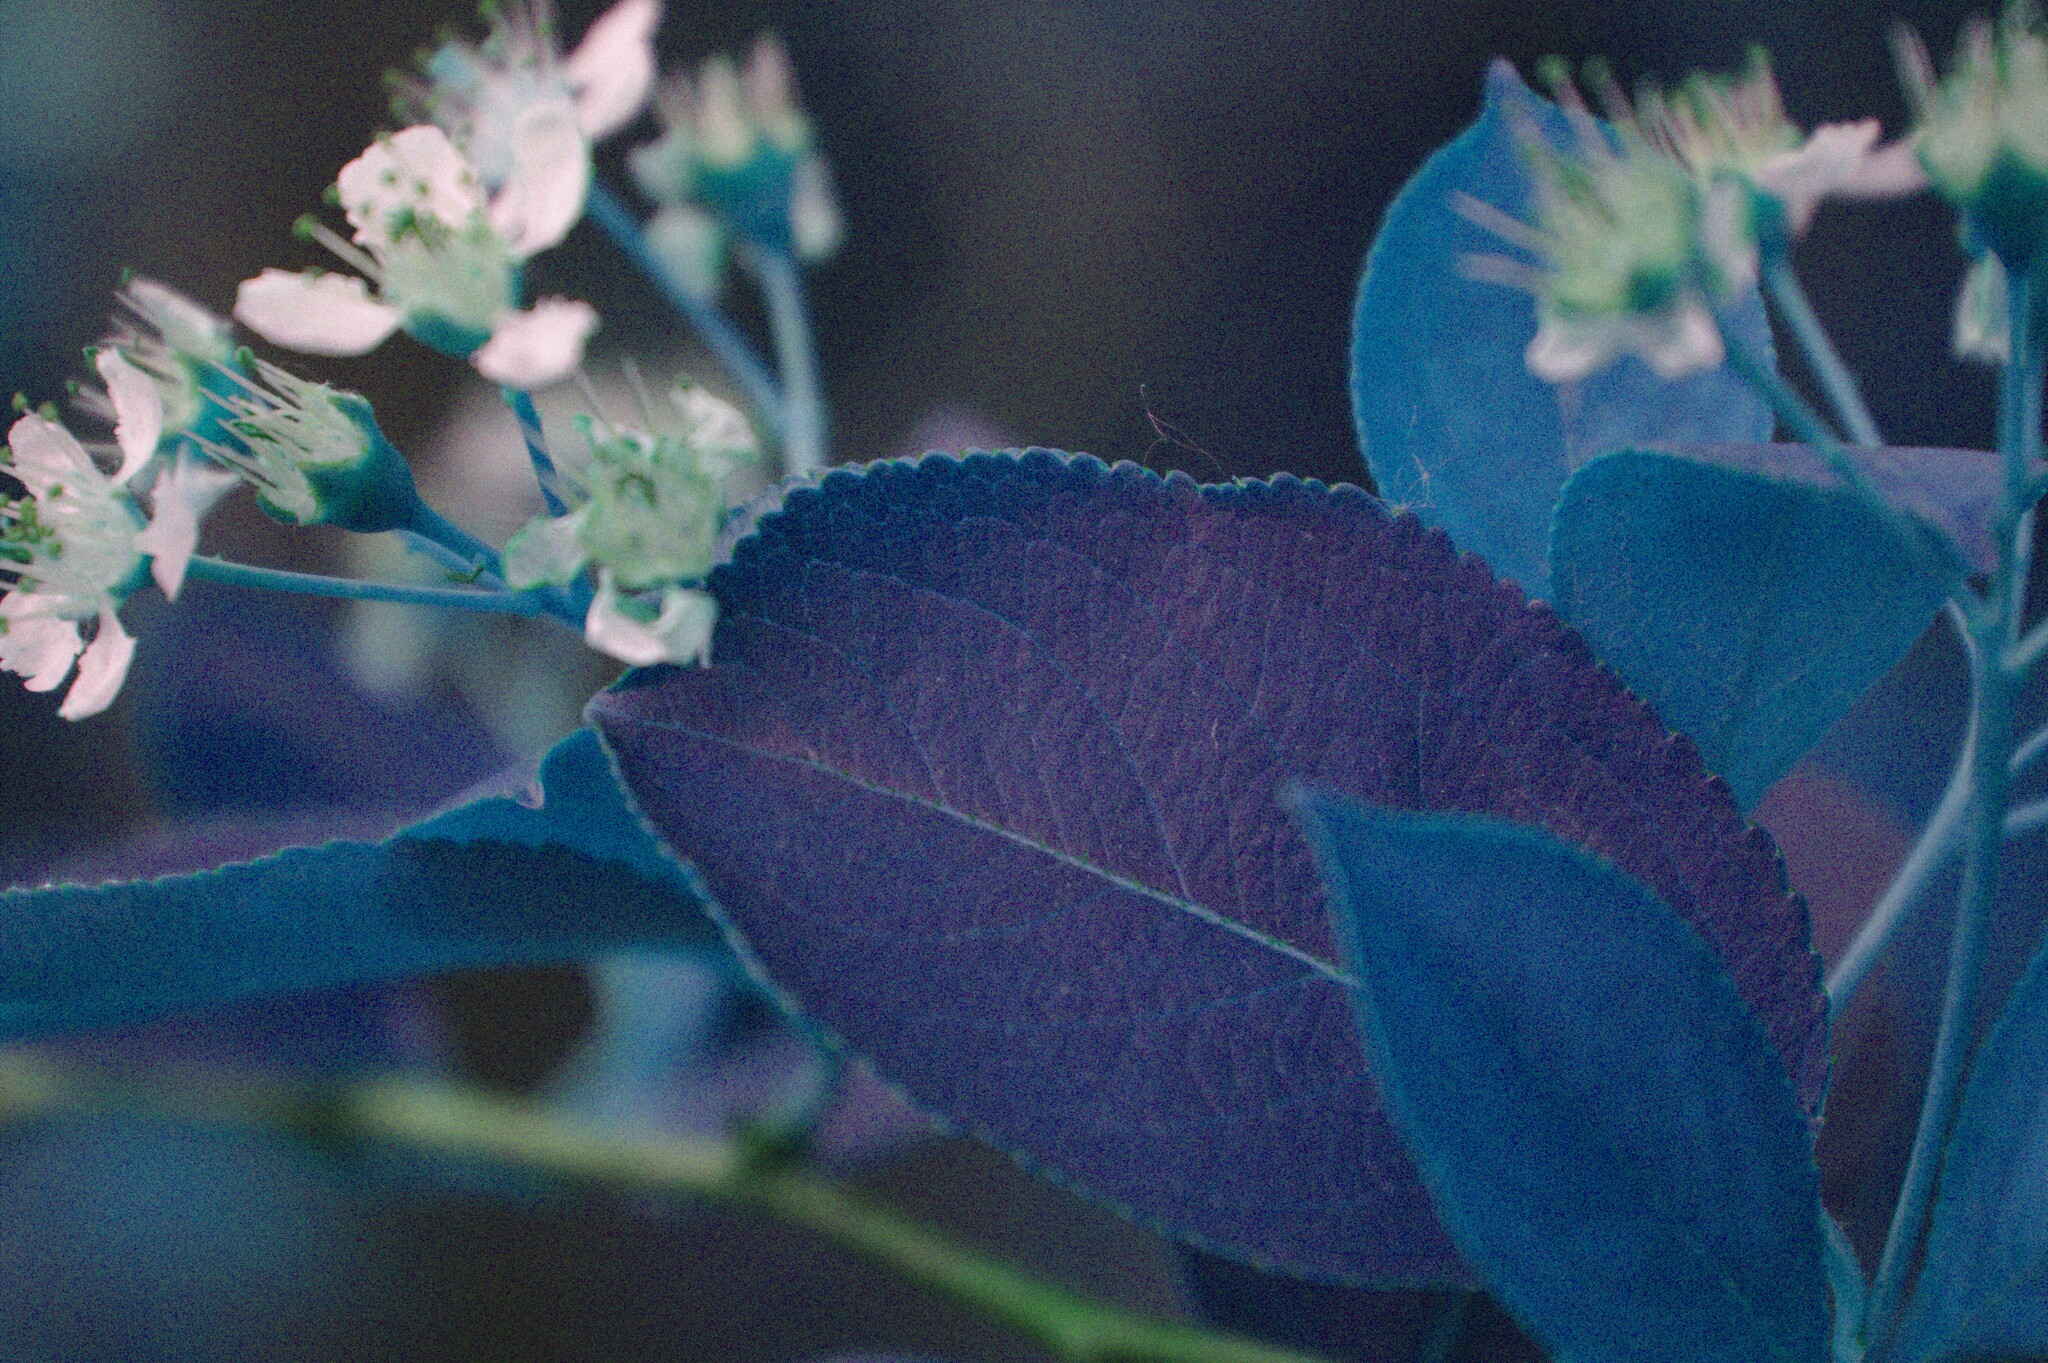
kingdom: Plantae
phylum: Tracheophyta
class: Magnoliopsida
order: Rosales
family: Rosaceae
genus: Aronia
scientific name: Aronia melanocarpa
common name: Black chokeberry
